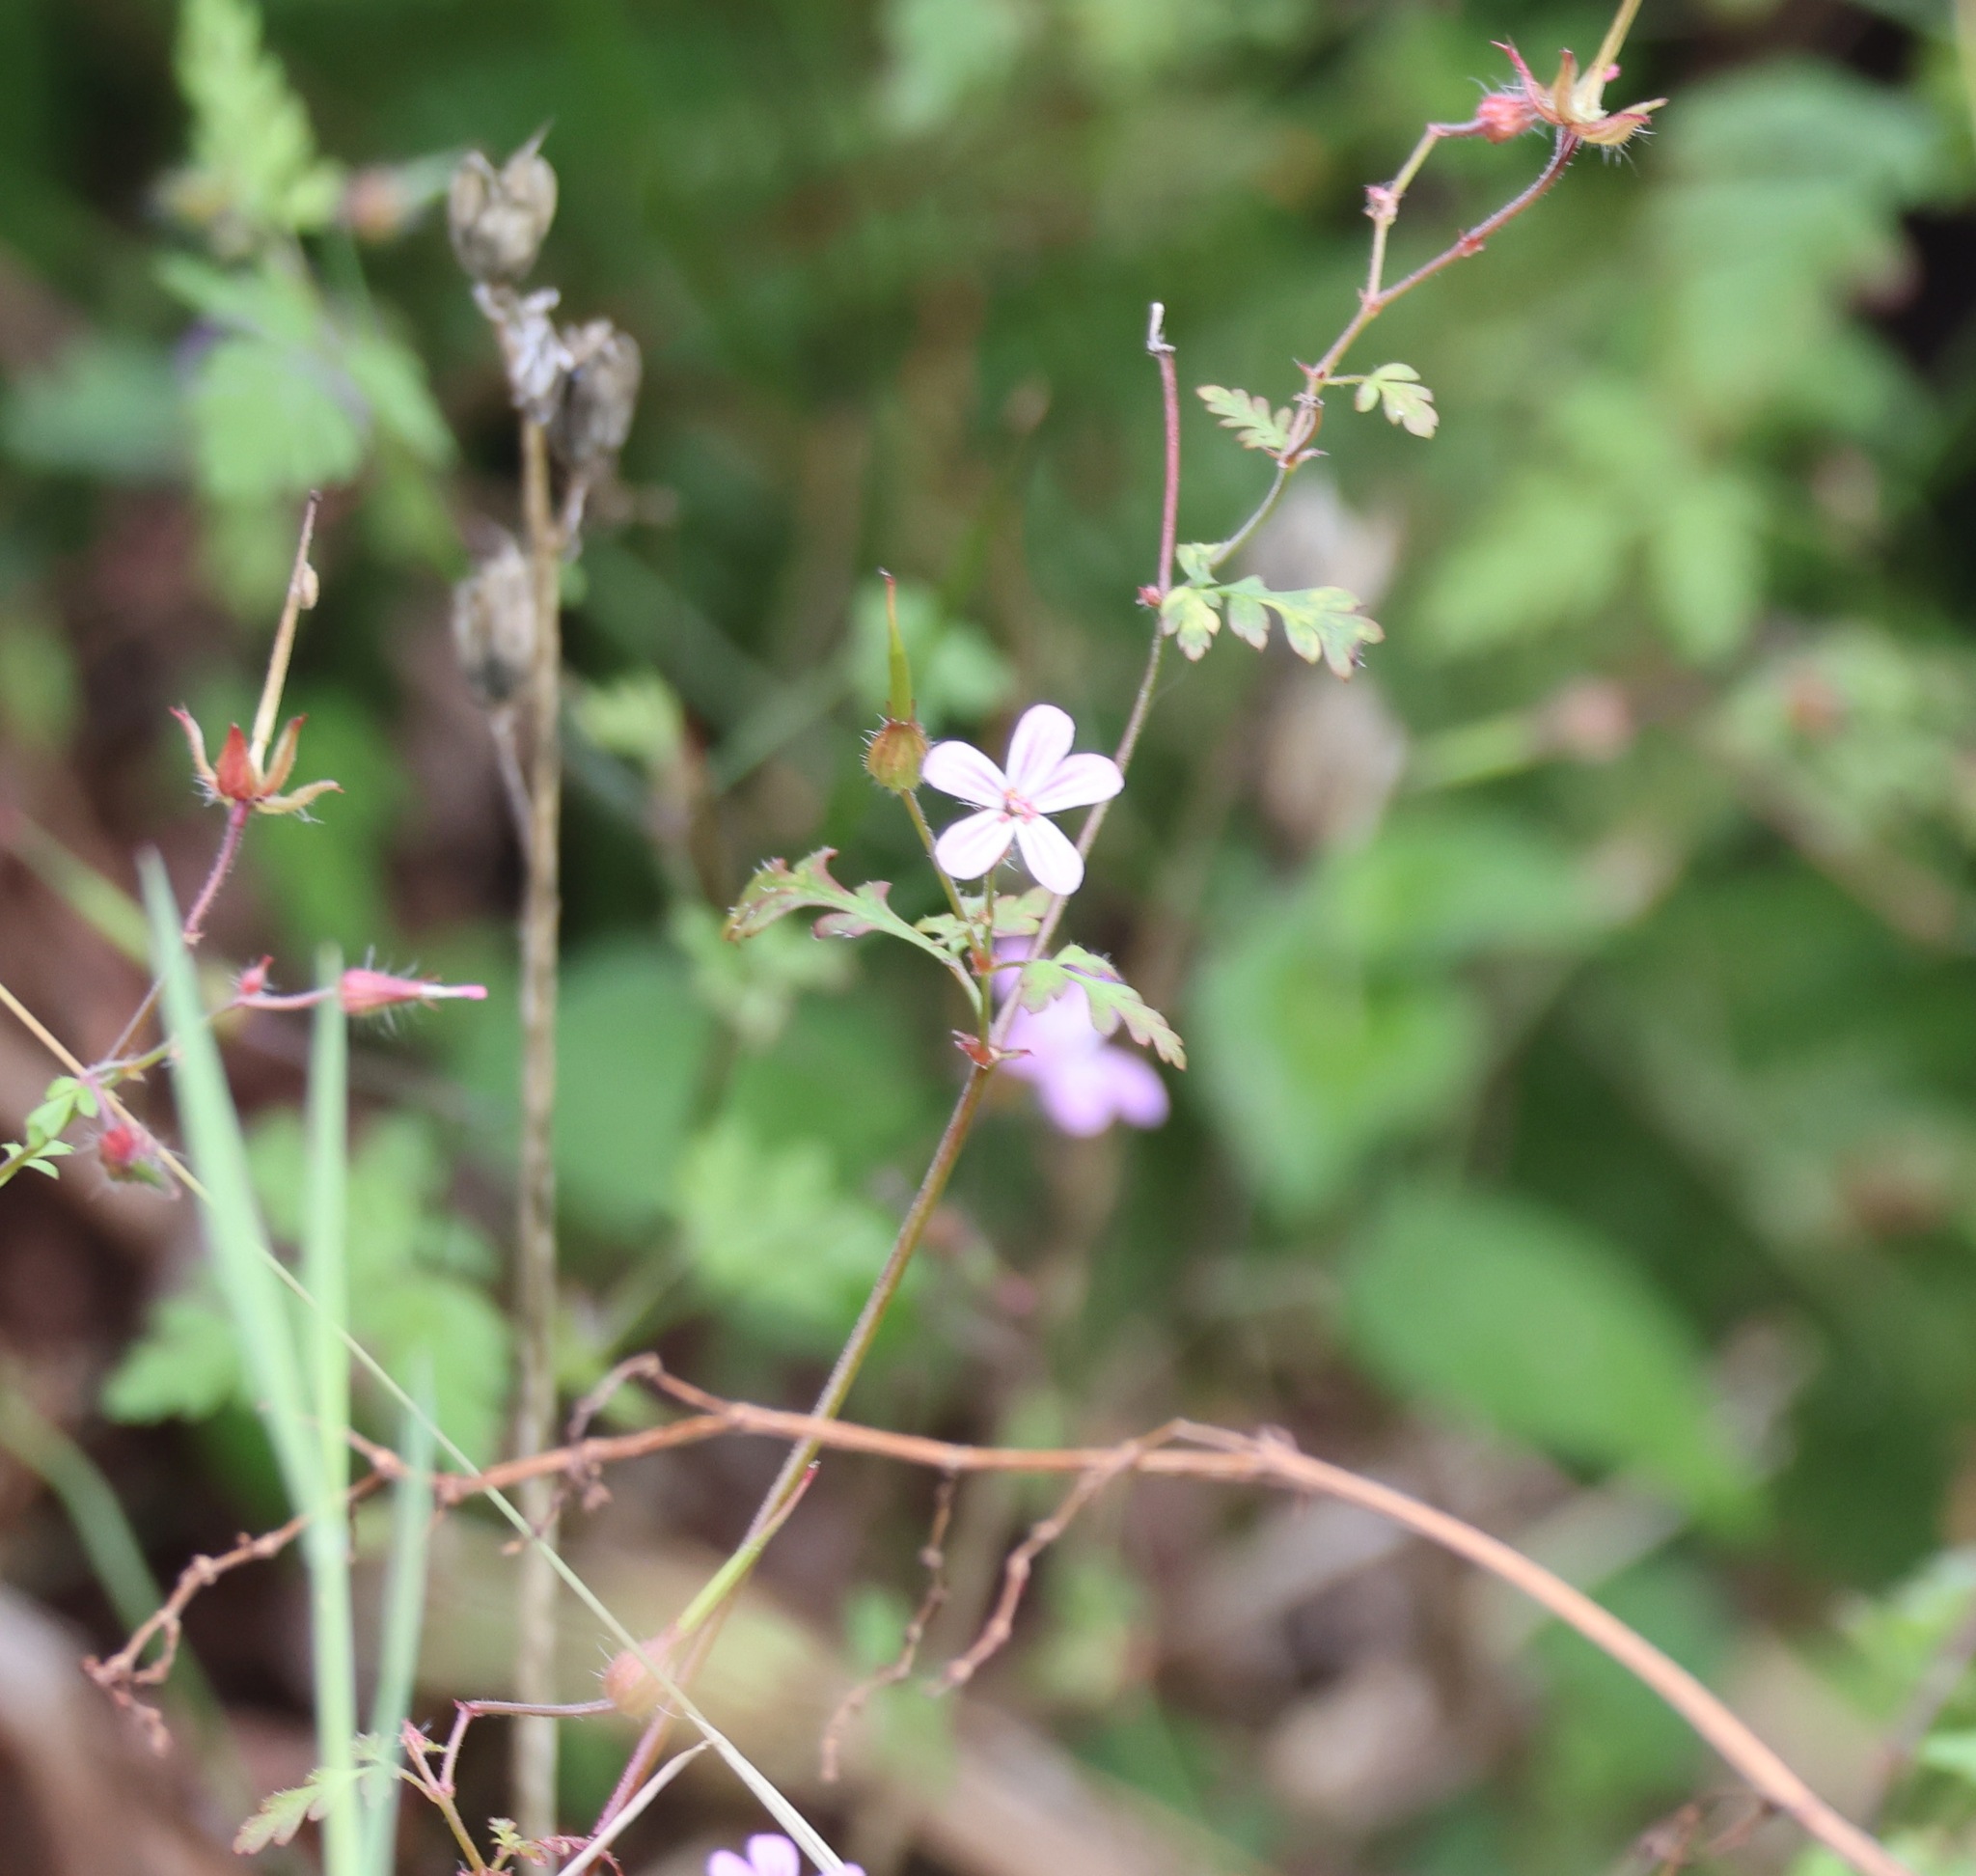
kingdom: Plantae
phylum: Tracheophyta
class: Magnoliopsida
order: Geraniales
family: Geraniaceae
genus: Geranium
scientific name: Geranium robertianum
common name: Herb-robert
